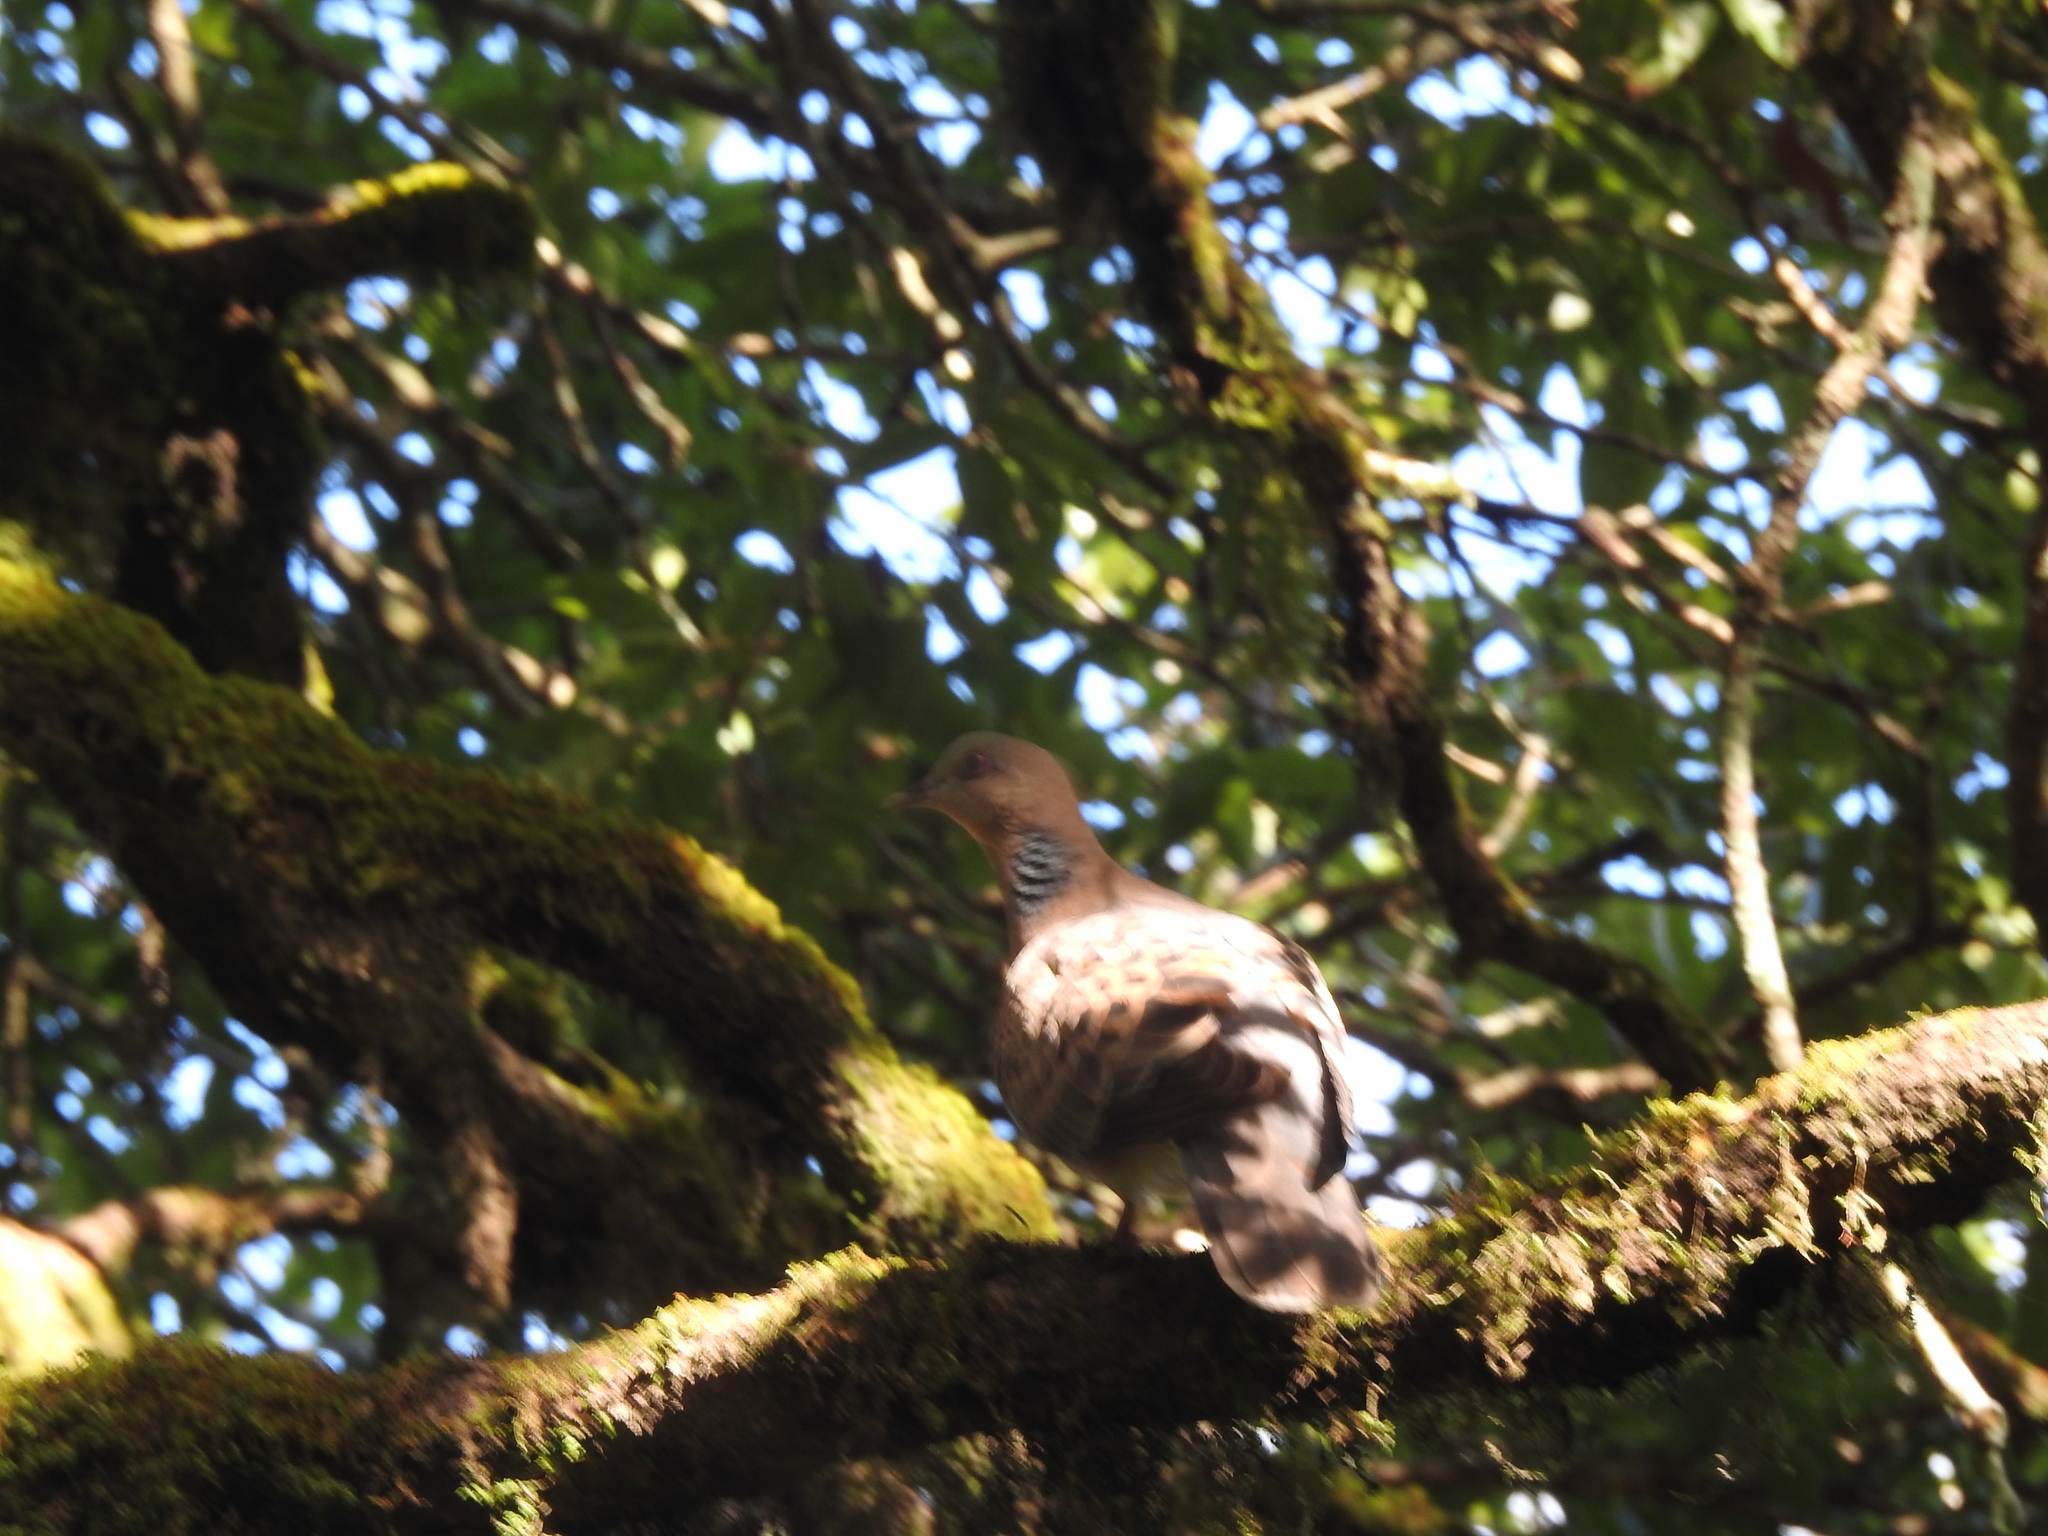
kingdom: Animalia
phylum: Chordata
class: Aves
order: Columbiformes
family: Columbidae
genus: Streptopelia
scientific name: Streptopelia orientalis
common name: Oriental turtle dove
